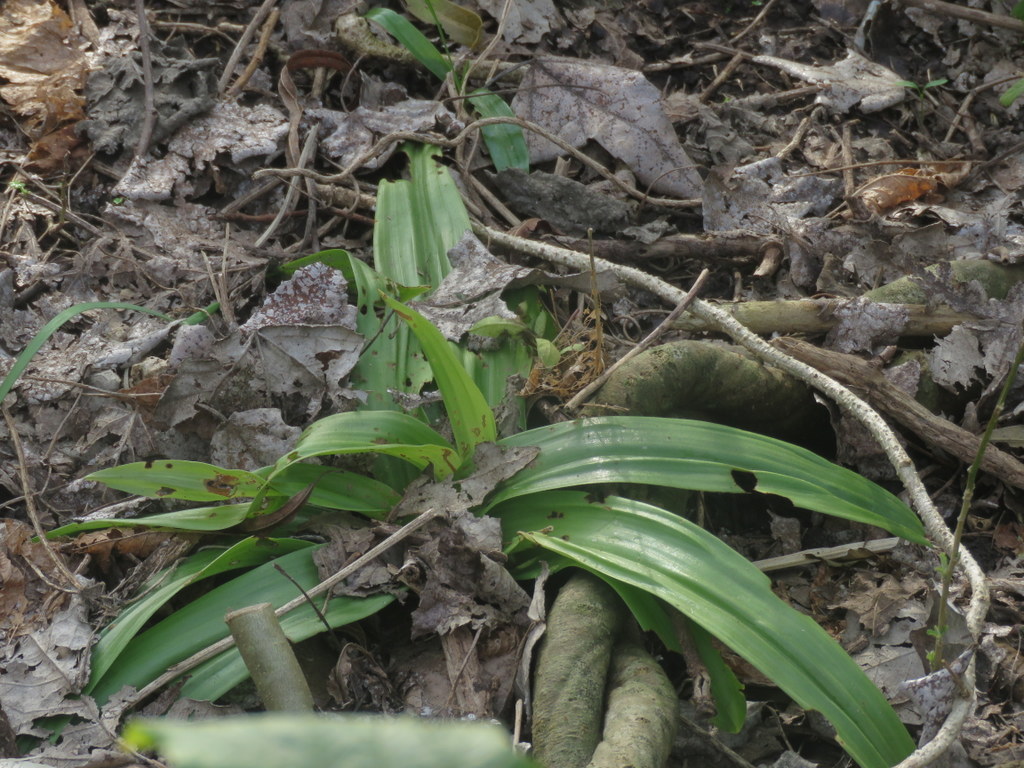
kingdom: Plantae
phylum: Tracheophyta
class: Liliopsida
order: Asparagales
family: Orchidaceae
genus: Chloraea
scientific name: Chloraea membranacea
